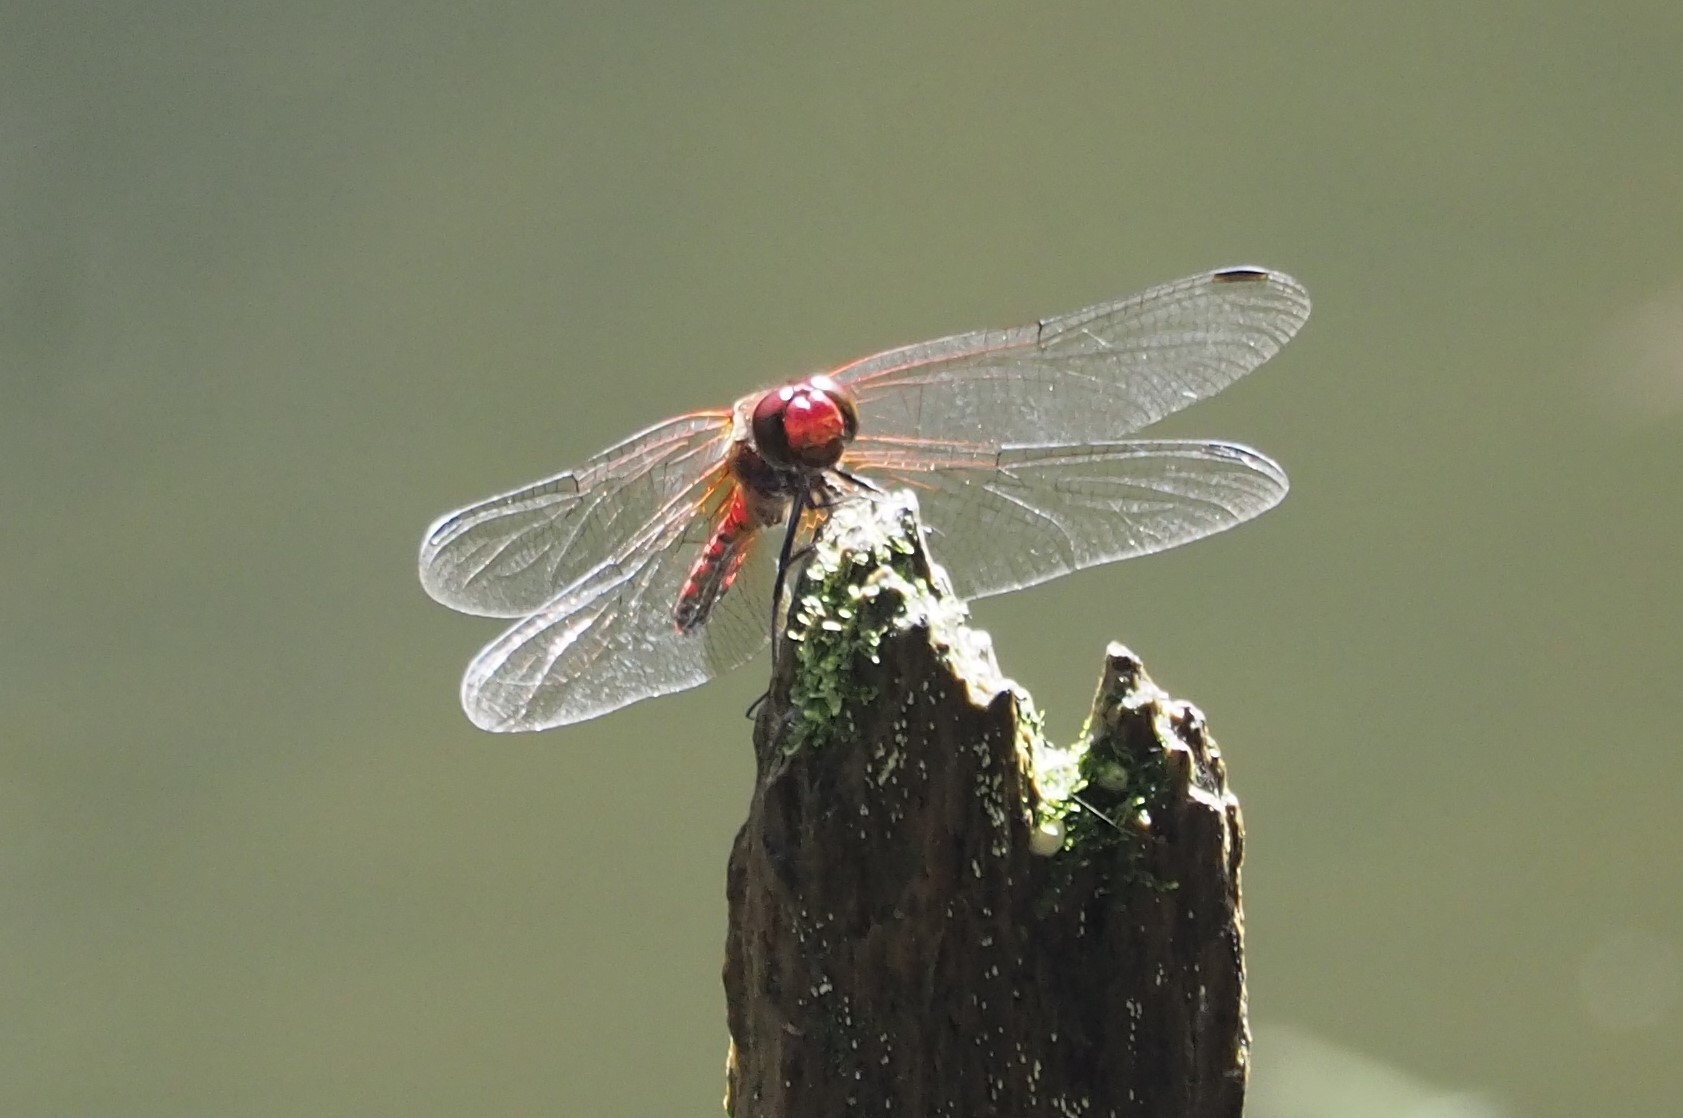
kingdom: Animalia
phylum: Arthropoda
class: Insecta
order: Odonata
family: Libellulidae
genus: Sympetrum
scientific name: Sympetrum speciosum
